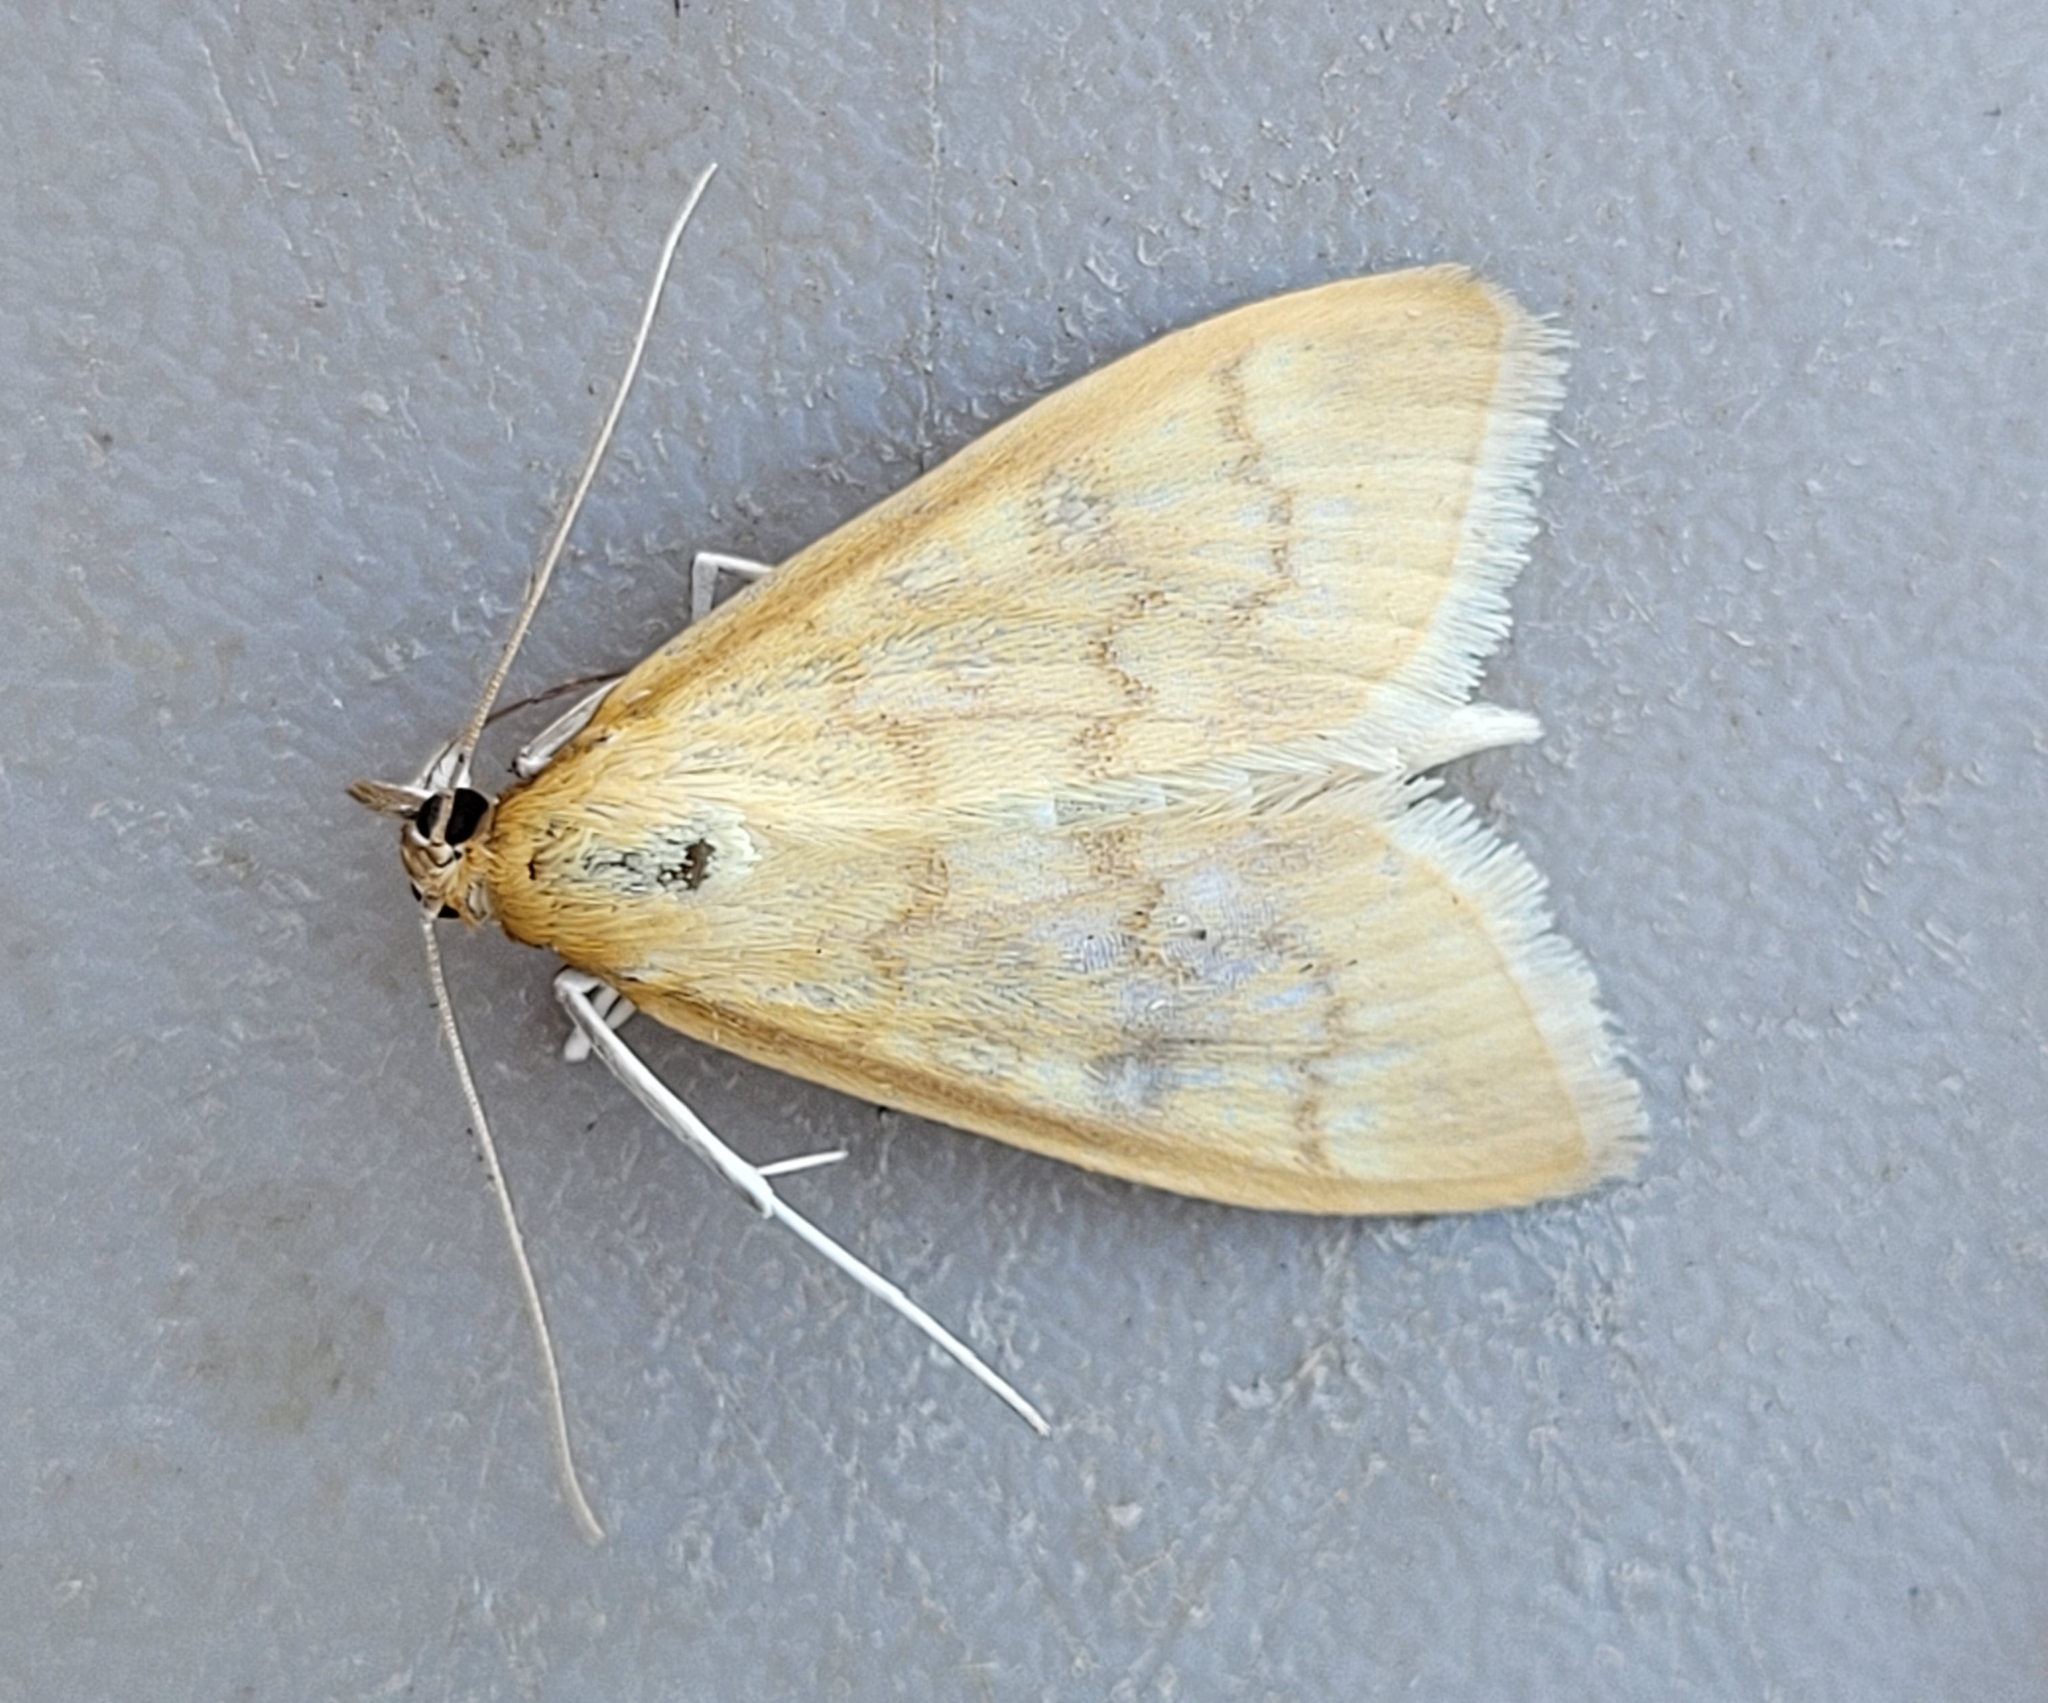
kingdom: Animalia
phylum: Arthropoda
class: Insecta
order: Lepidoptera
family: Crambidae
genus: Mecyna
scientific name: Mecyna submedialis
